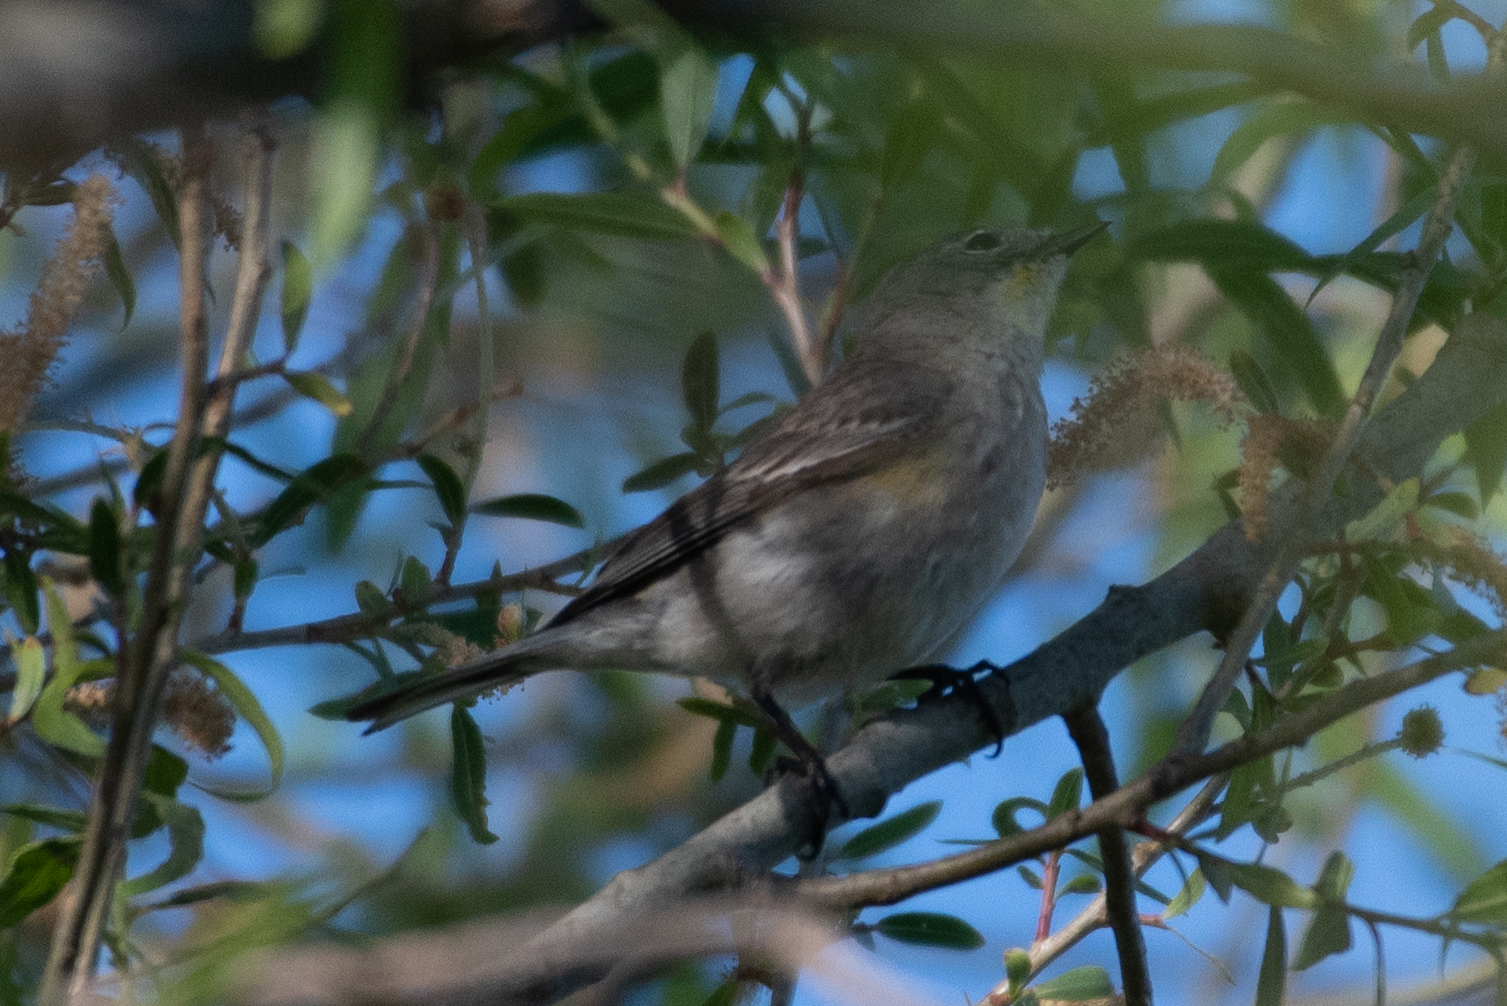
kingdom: Animalia
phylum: Chordata
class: Aves
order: Passeriformes
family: Parulidae
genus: Setophaga
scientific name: Setophaga coronata
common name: Myrtle warbler
